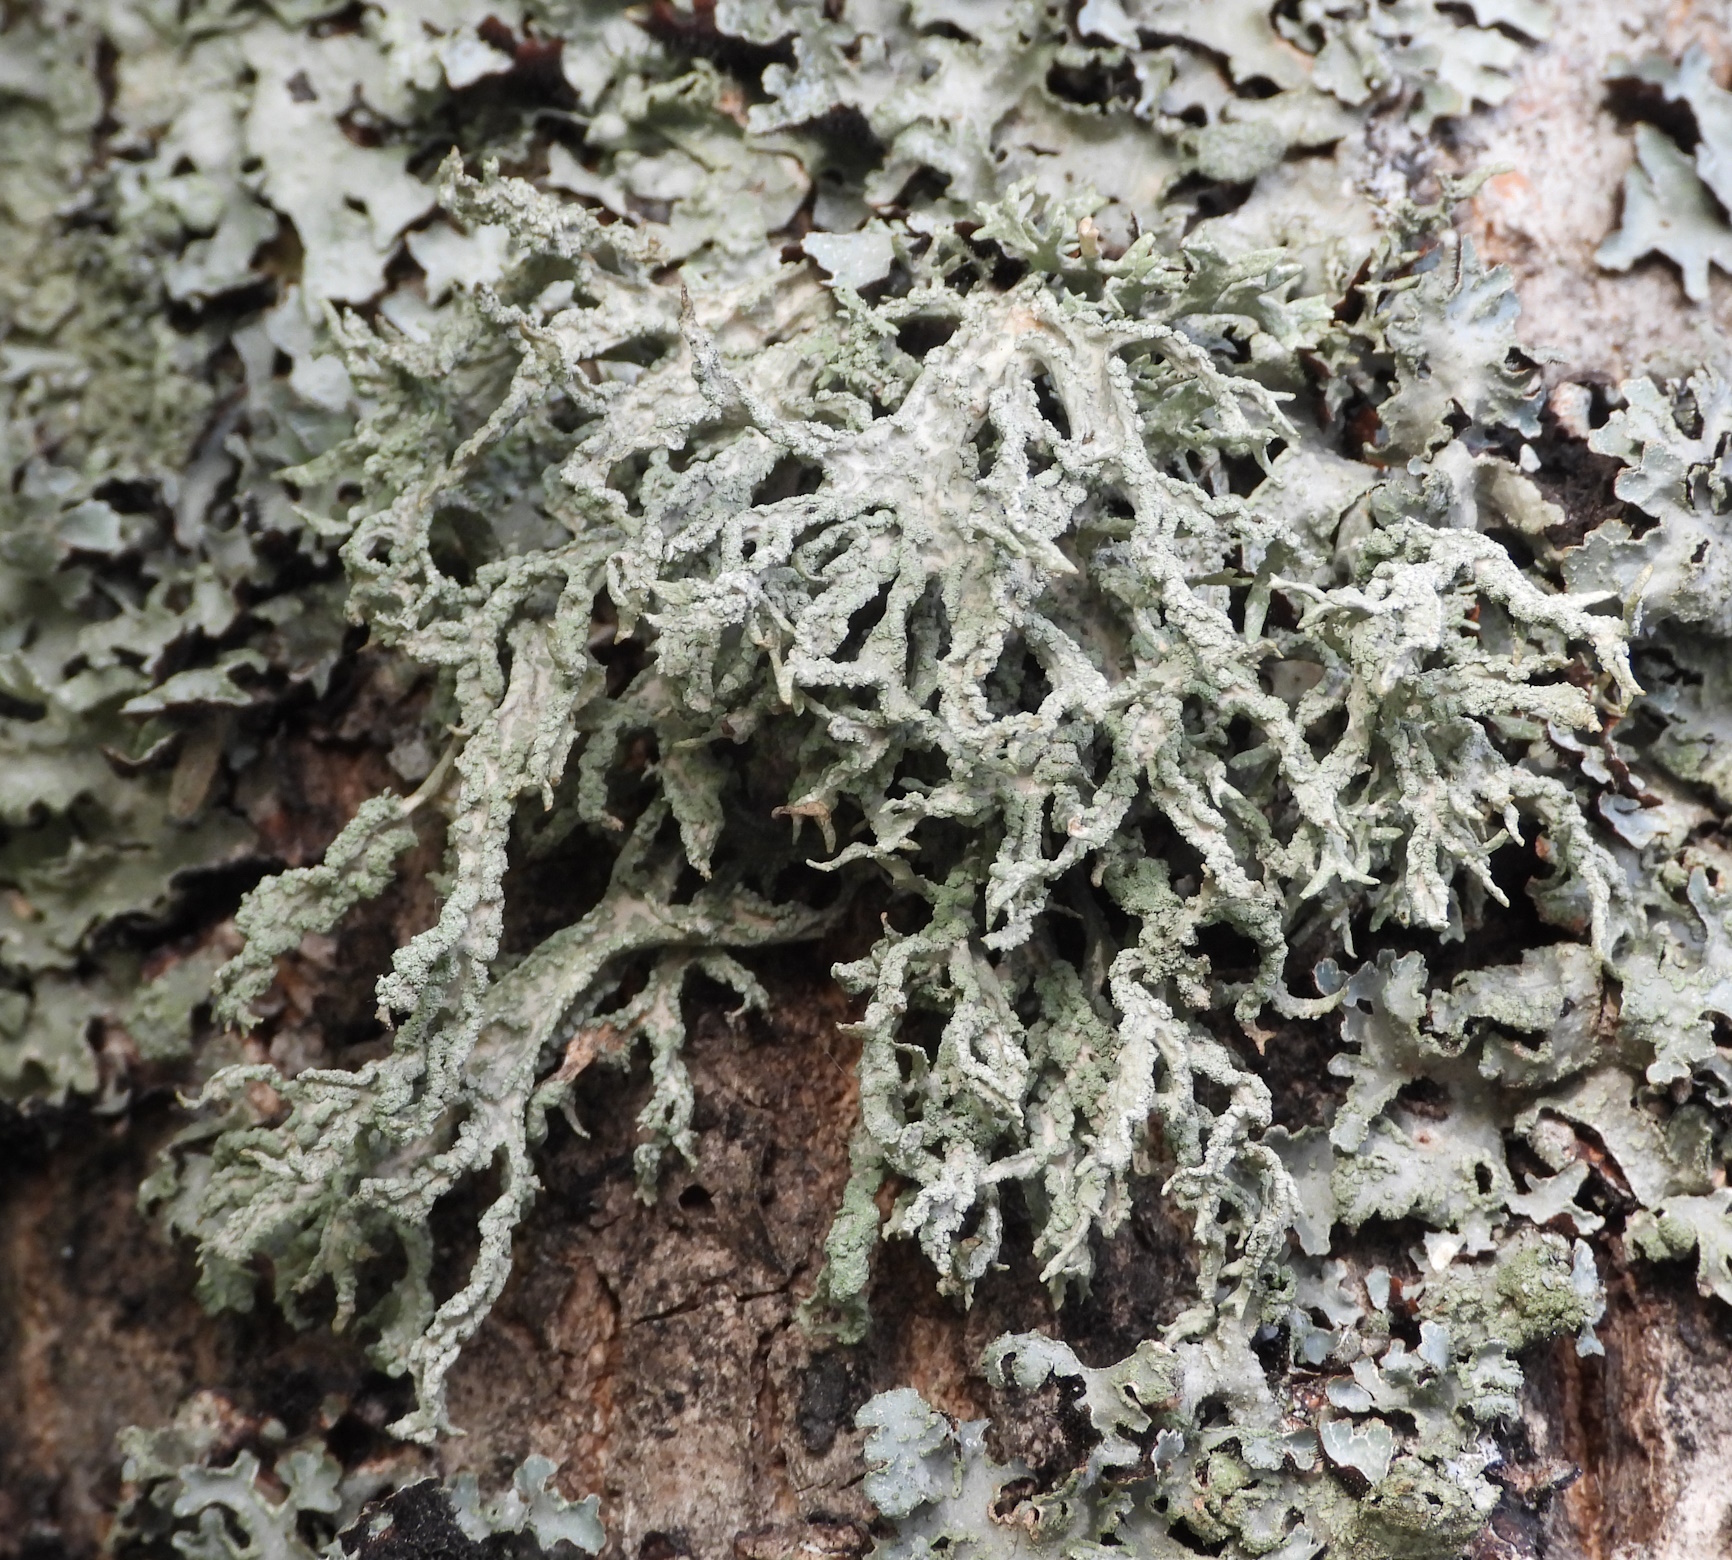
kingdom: Fungi
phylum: Ascomycota
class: Lecanoromycetes
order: Lecanorales
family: Parmeliaceae
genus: Evernia
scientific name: Evernia prunastri
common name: Oak moss
